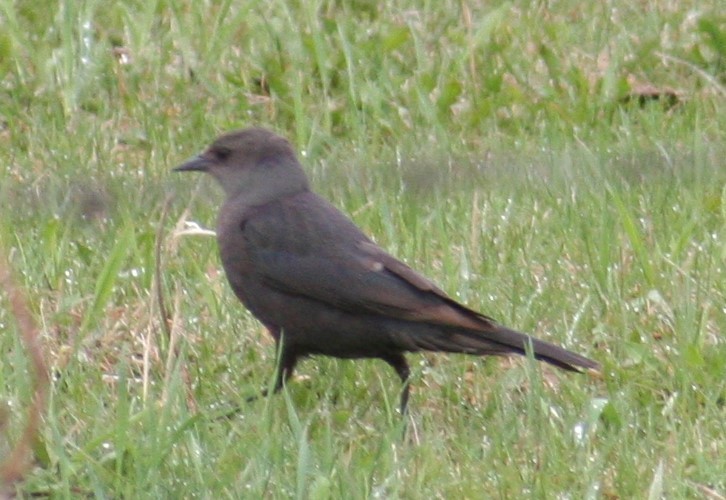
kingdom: Animalia
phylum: Chordata
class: Aves
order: Passeriformes
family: Icteridae
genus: Euphagus
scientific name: Euphagus cyanocephalus
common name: Brewer's blackbird
